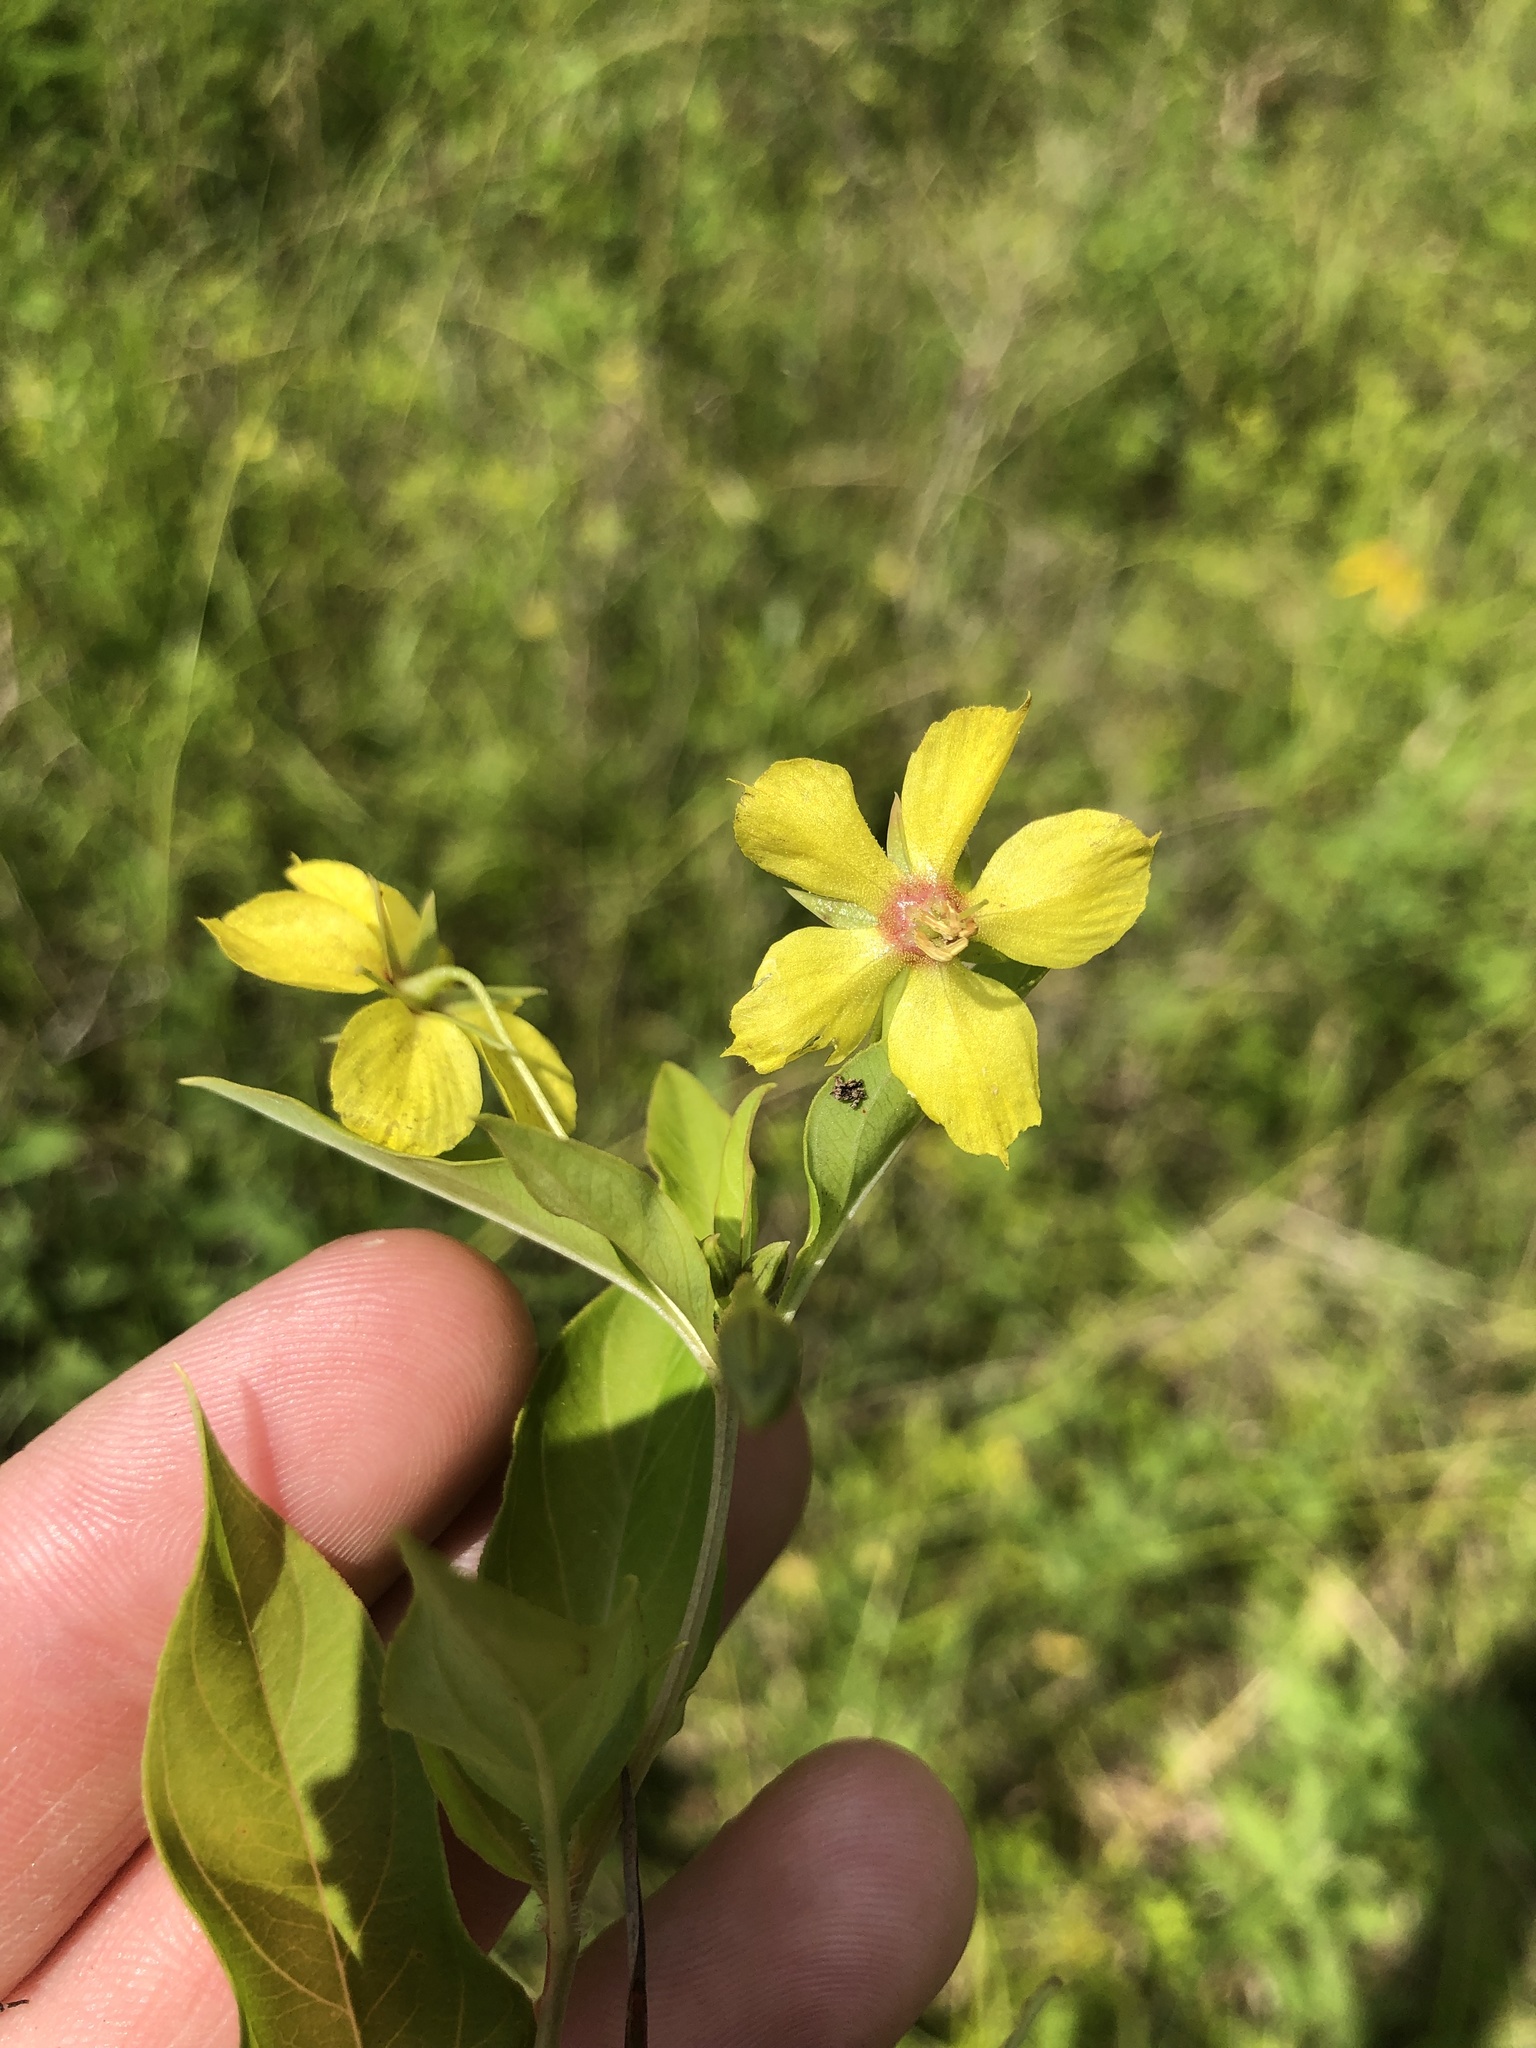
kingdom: Plantae
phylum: Tracheophyta
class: Magnoliopsida
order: Ericales
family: Primulaceae
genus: Lysimachia
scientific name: Lysimachia ciliata
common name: Fringed loosestrife
